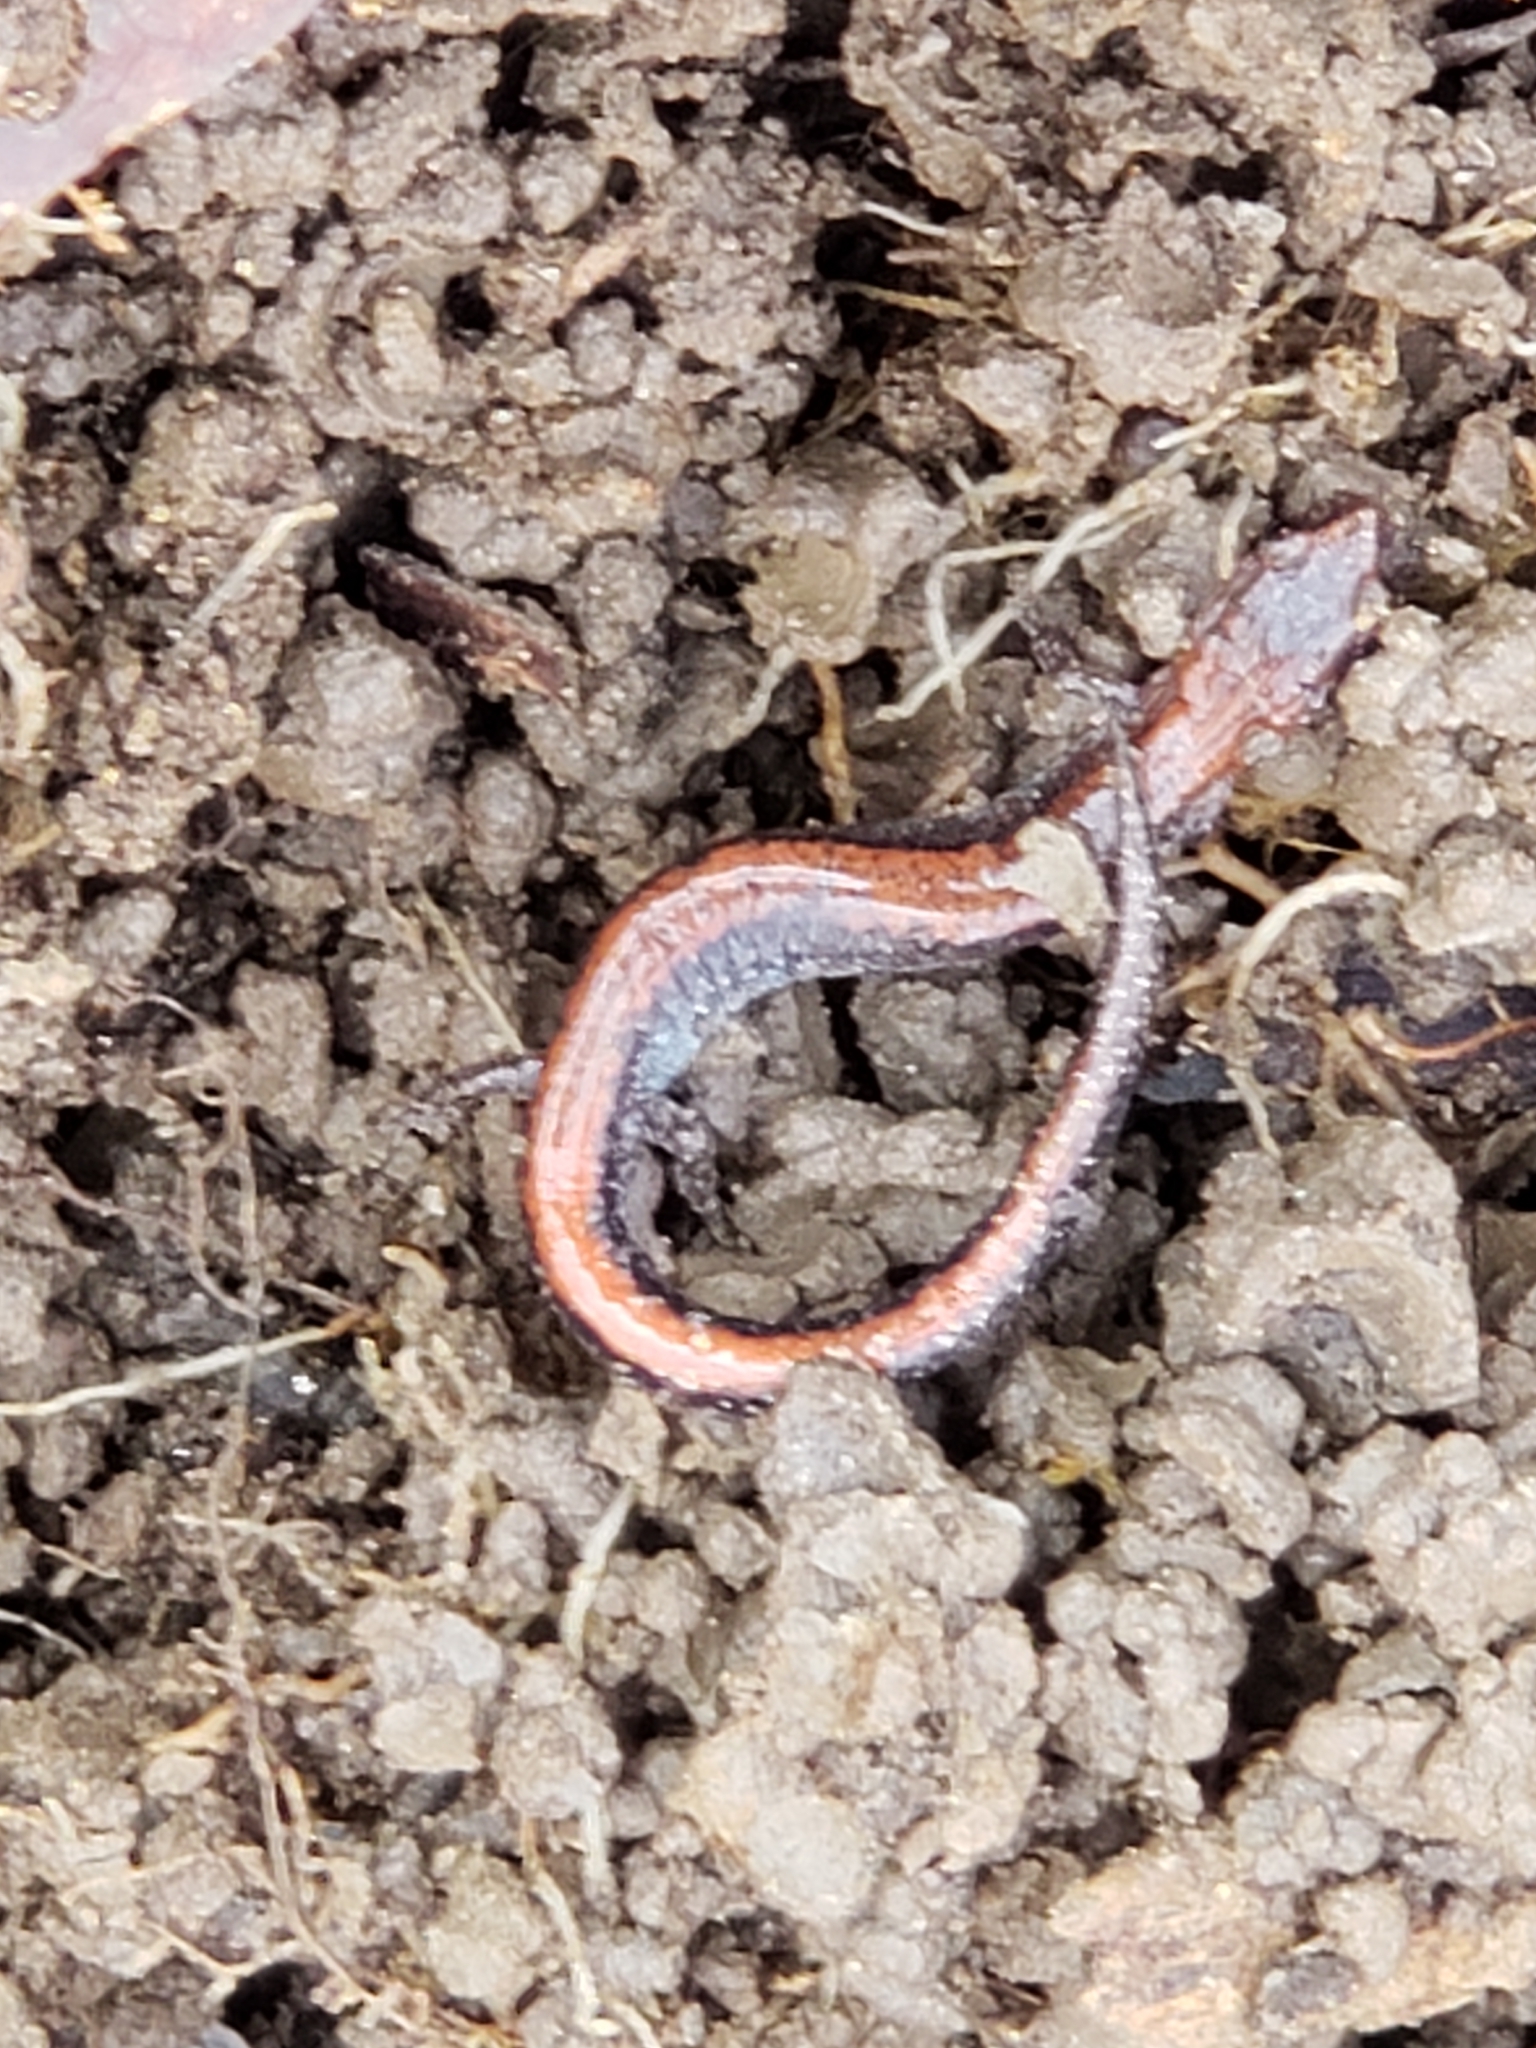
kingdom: Animalia
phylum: Chordata
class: Amphibia
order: Caudata
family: Plethodontidae
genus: Plethodon
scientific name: Plethodon cinereus
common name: Redback salamander
